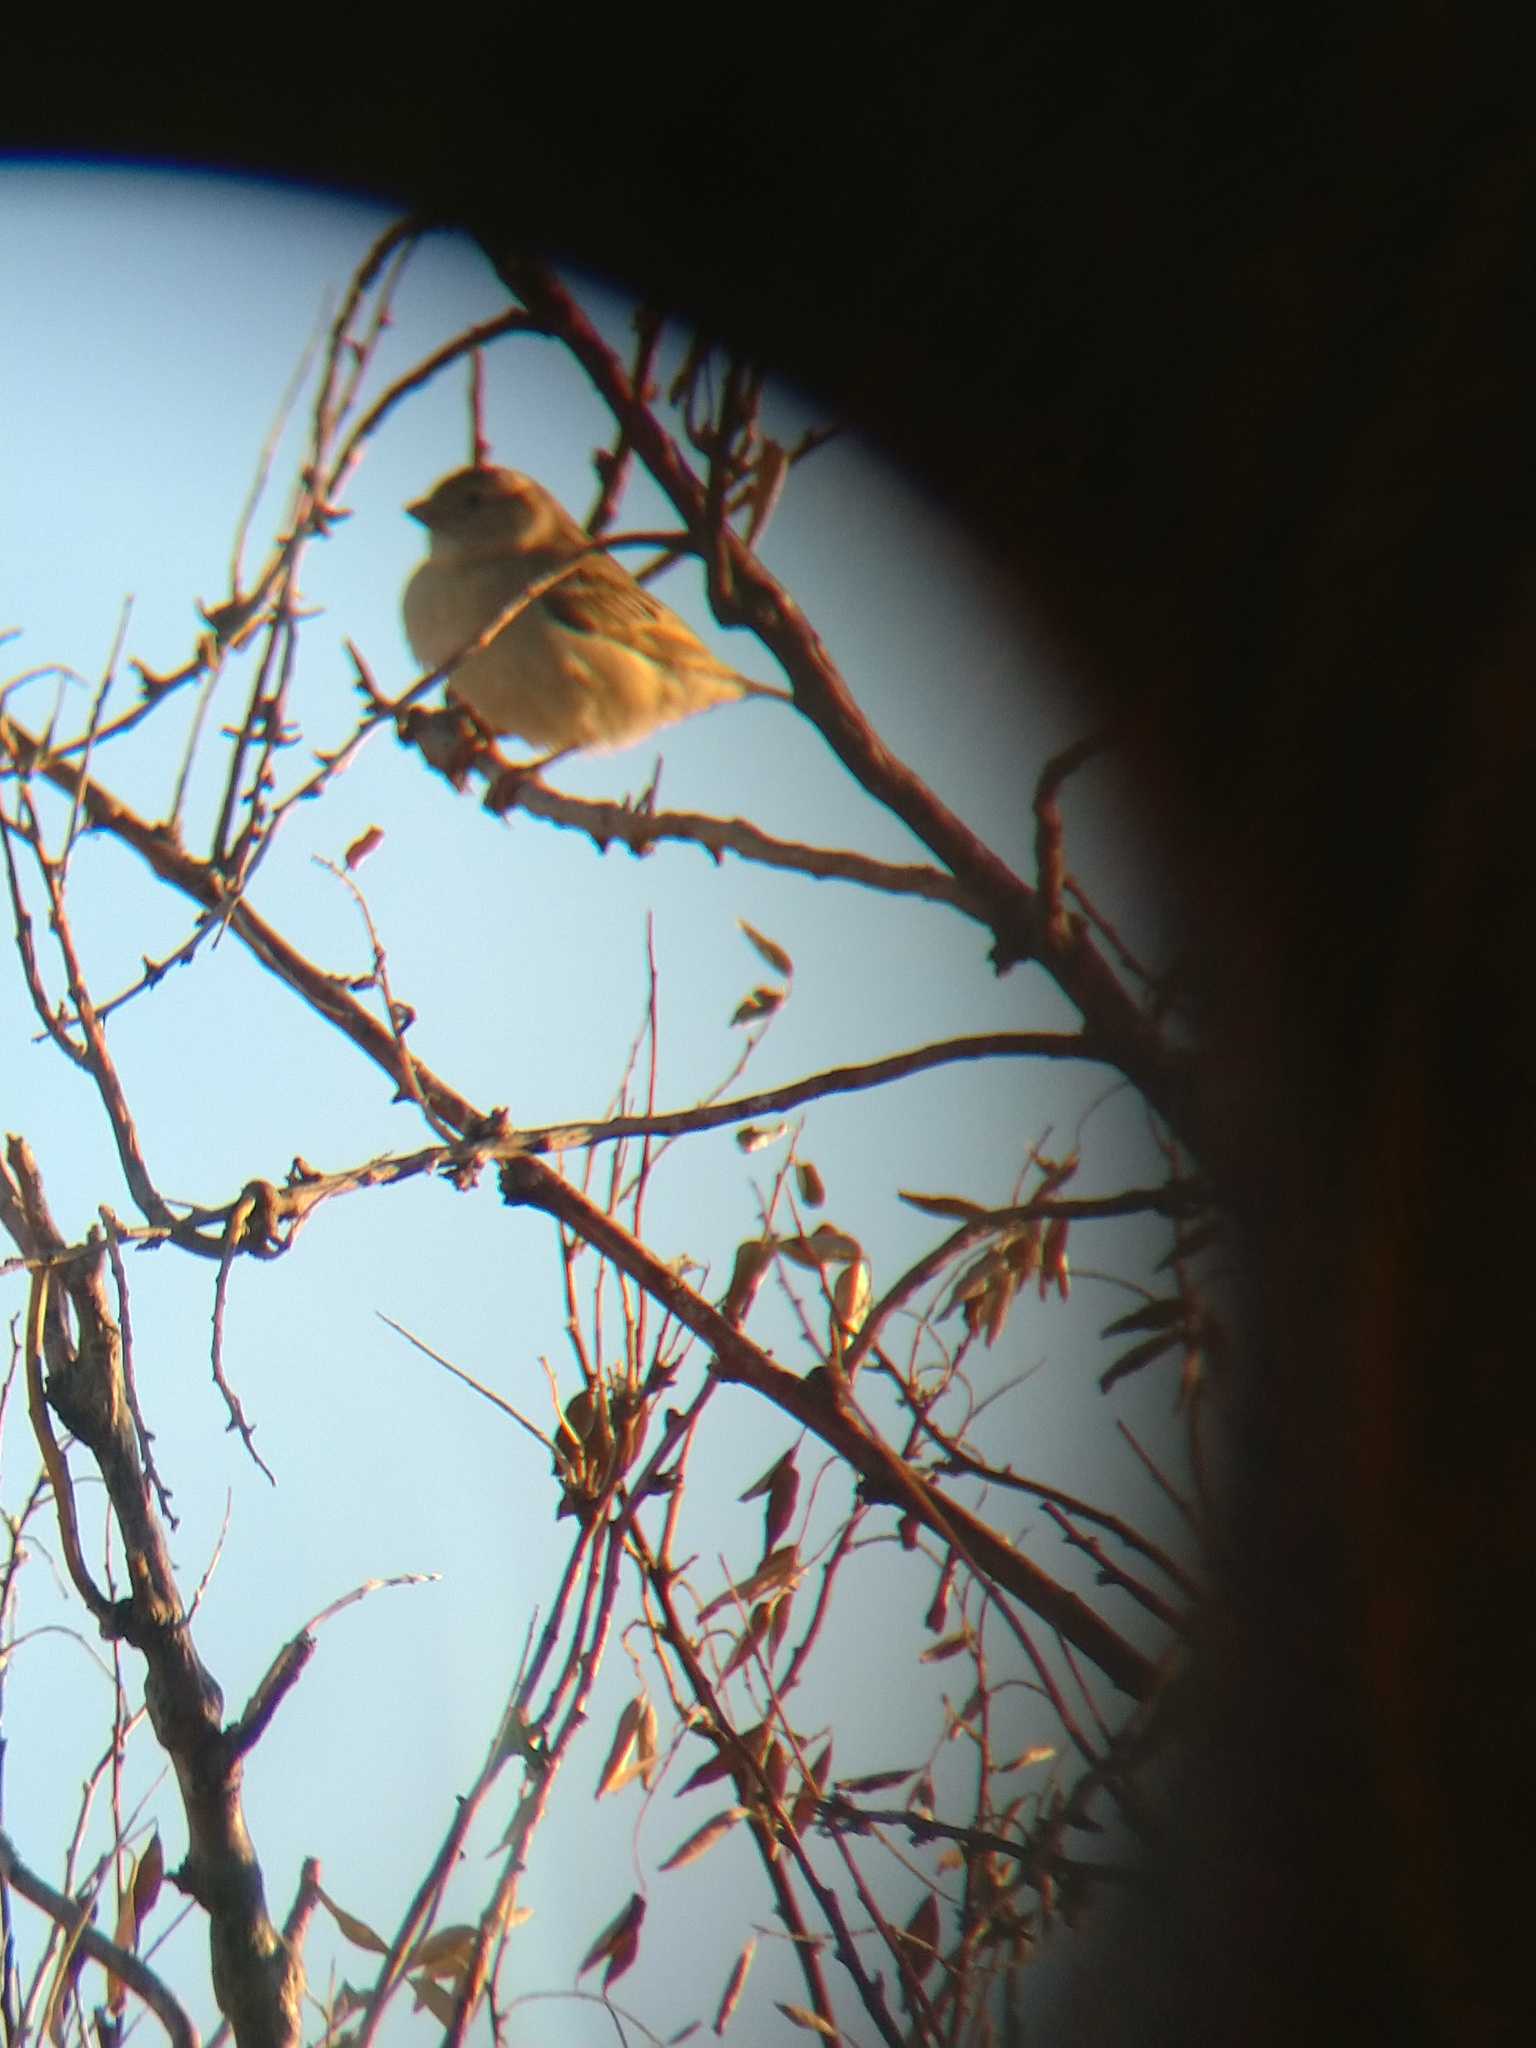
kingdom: Animalia
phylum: Chordata
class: Aves
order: Passeriformes
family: Passeridae
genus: Passer
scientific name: Passer domesticus
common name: House sparrow
